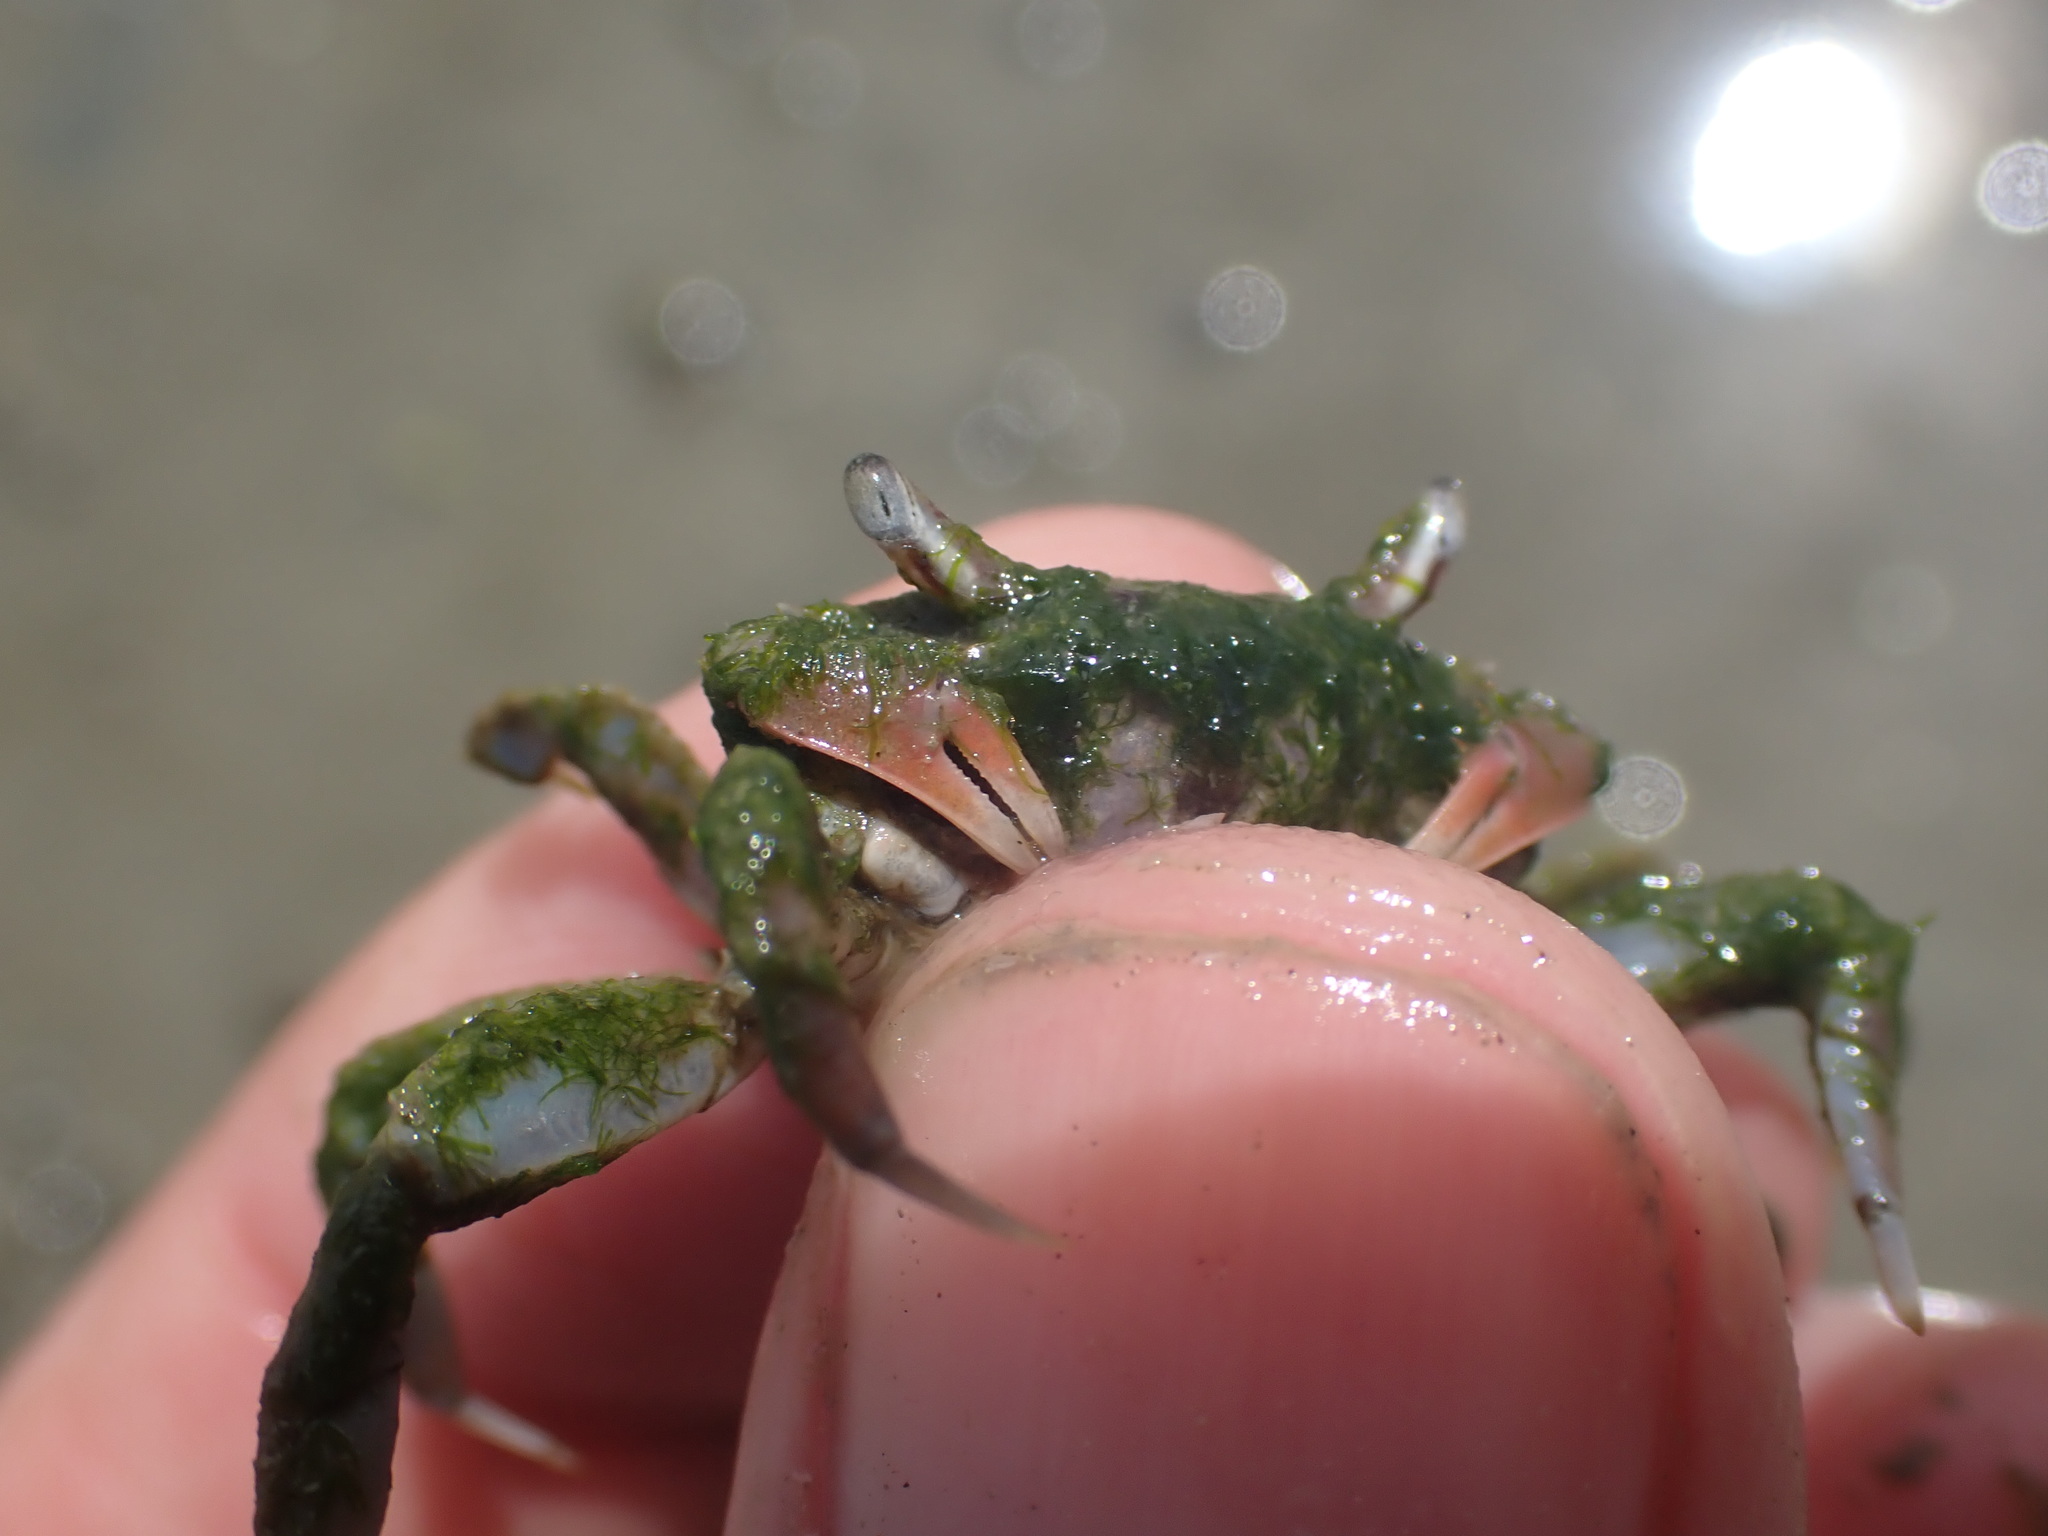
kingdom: Animalia
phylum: Arthropoda
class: Malacostraca
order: Decapoda
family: Macrophthalmidae
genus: Hemiplax
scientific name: Hemiplax hirtipes
